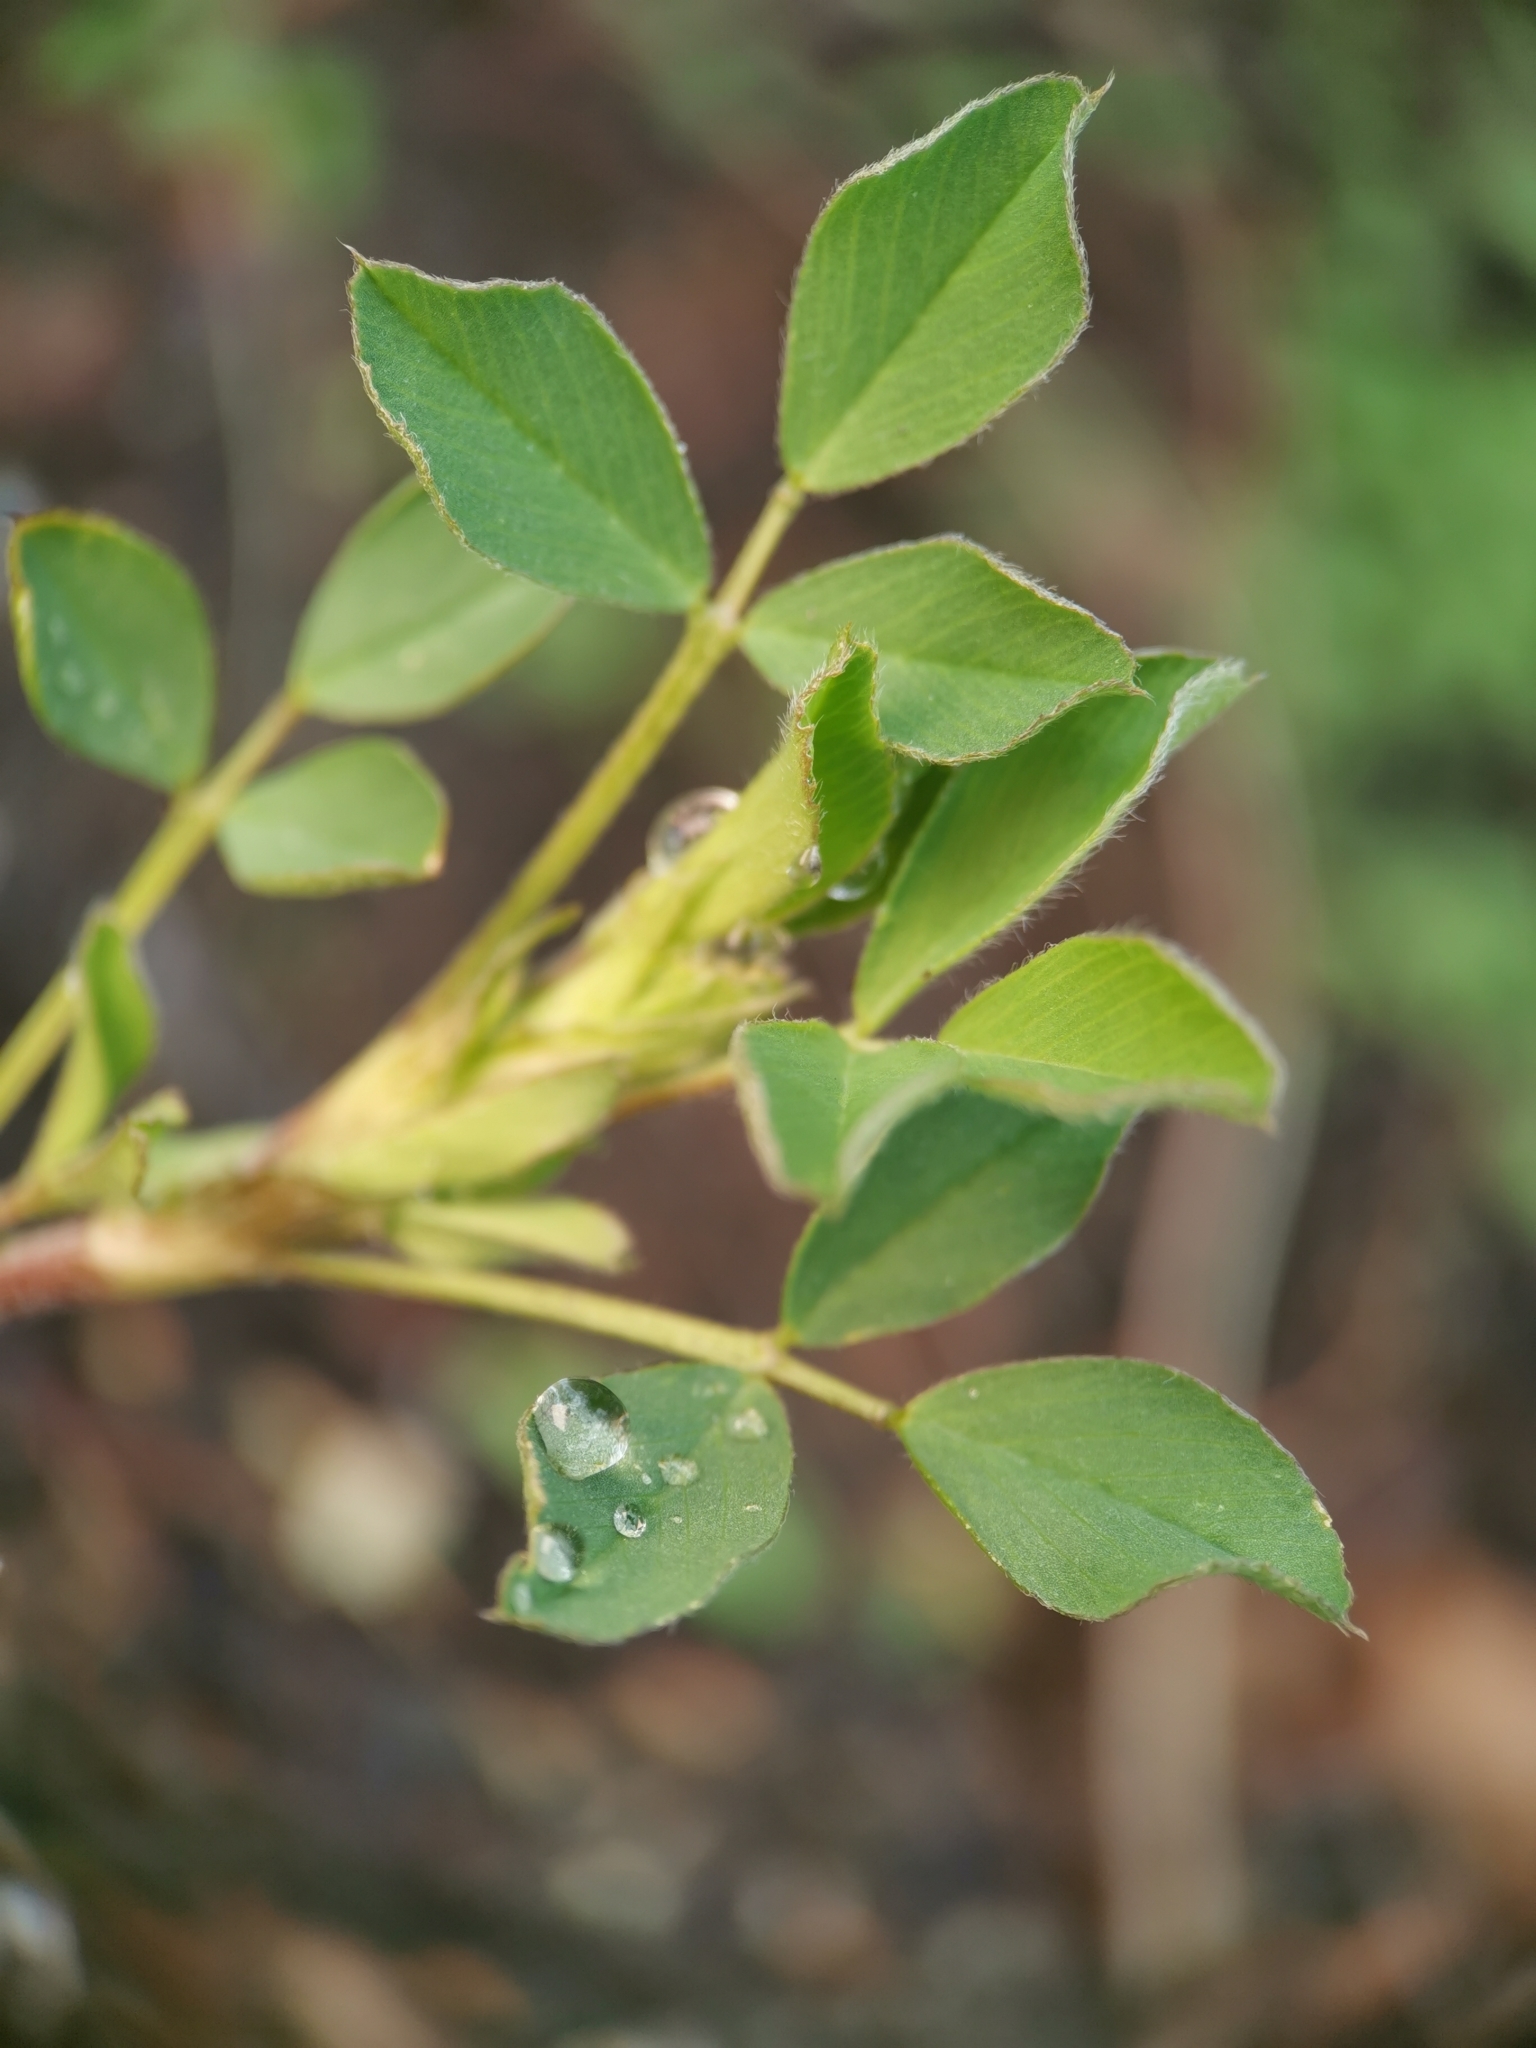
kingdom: Plantae
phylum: Tracheophyta
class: Magnoliopsida
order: Fabales
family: Fabaceae
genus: Medicago
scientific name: Medicago lupulina
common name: Black medick
